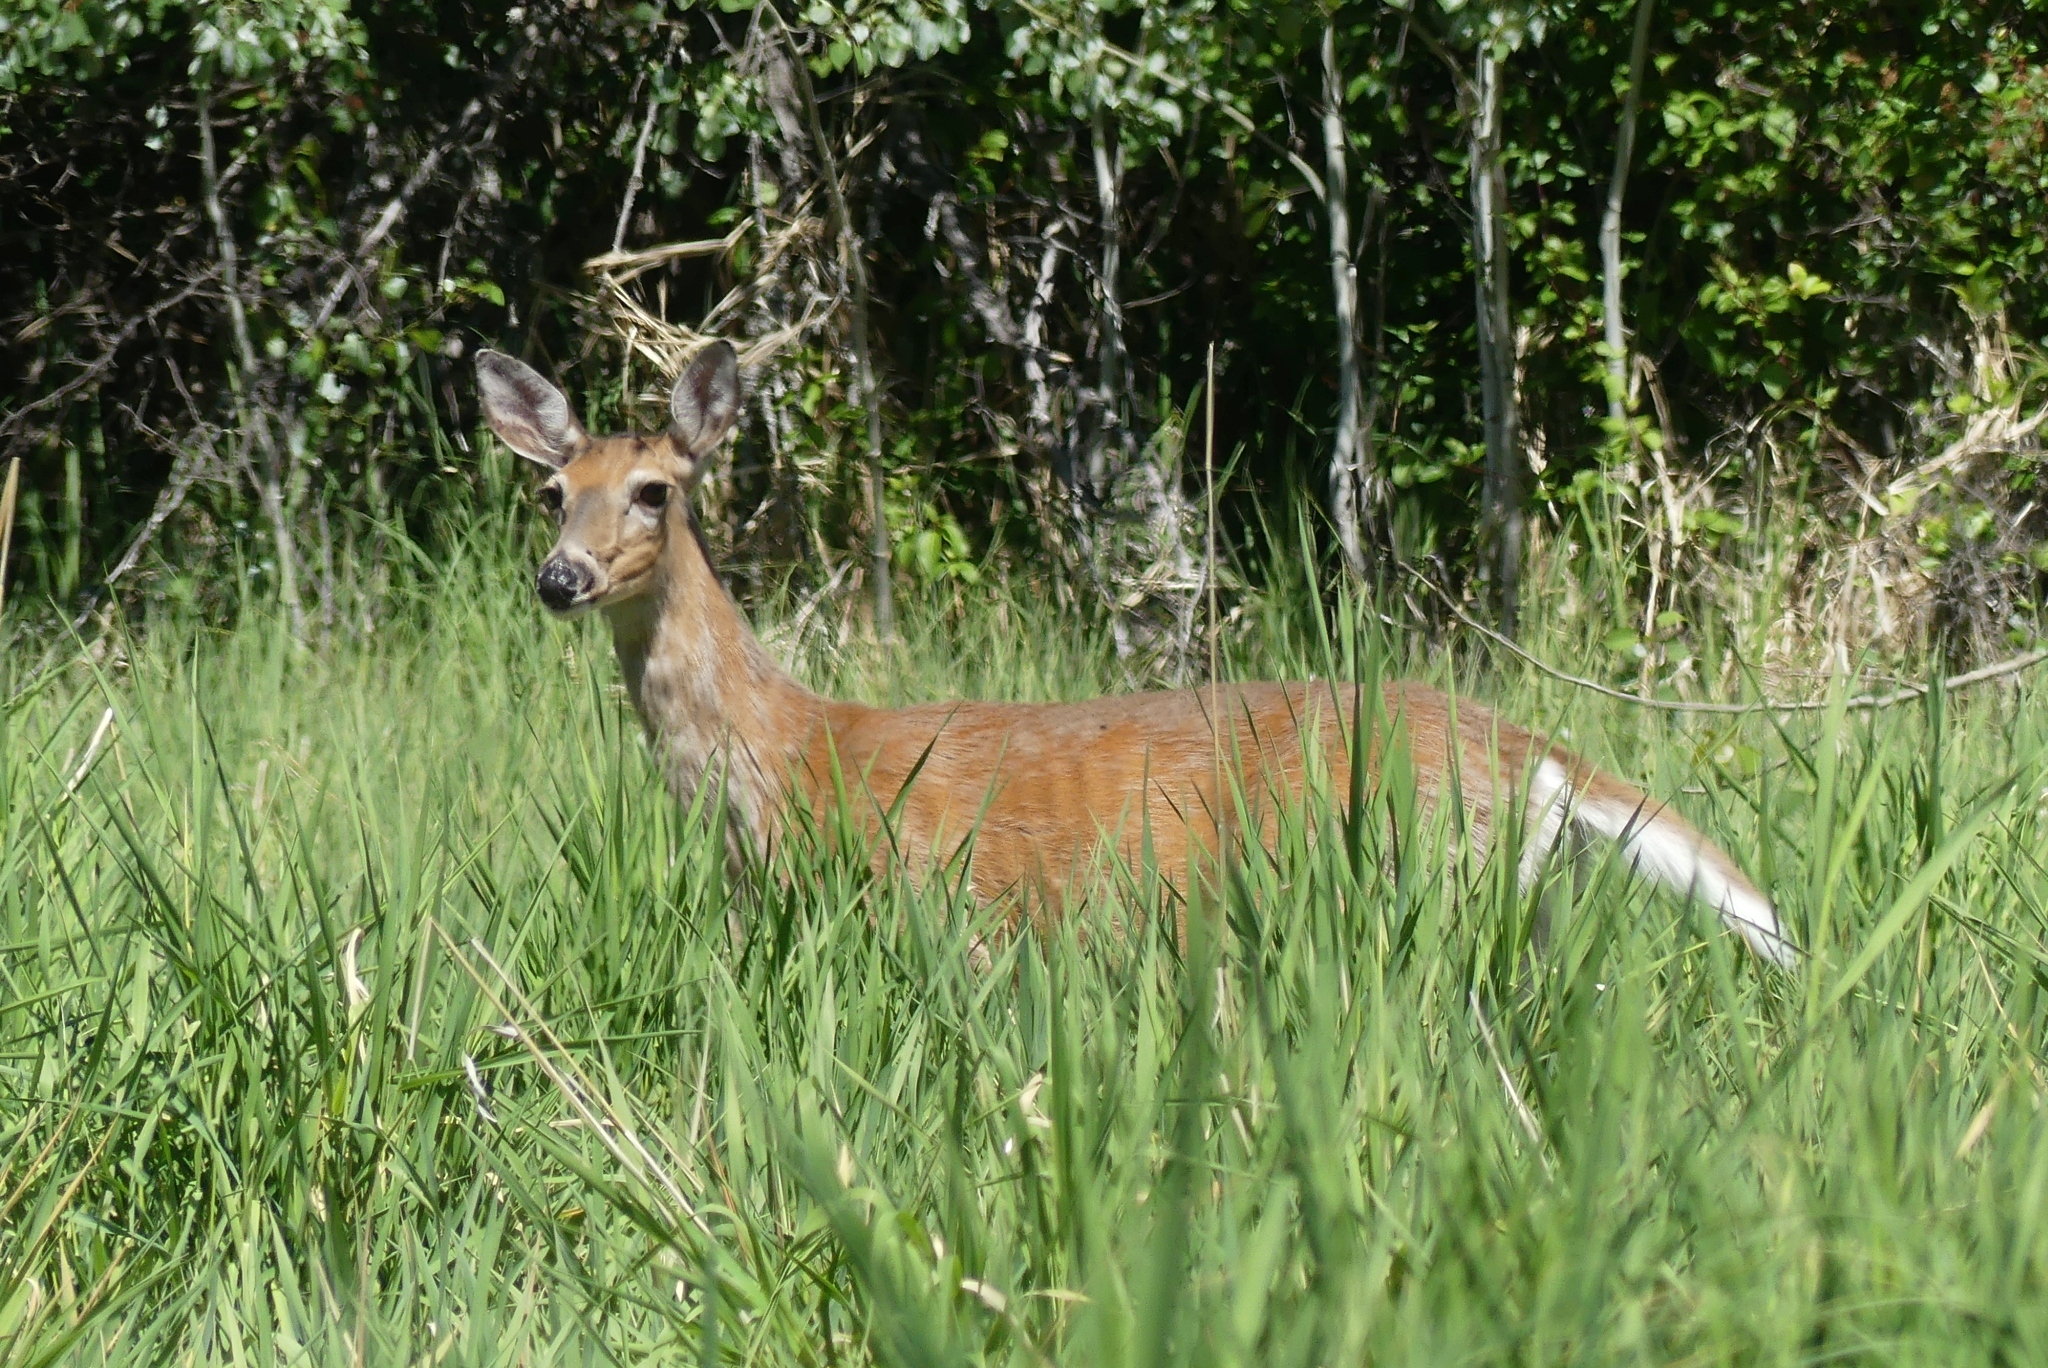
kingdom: Animalia
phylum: Chordata
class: Mammalia
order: Artiodactyla
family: Cervidae
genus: Odocoileus
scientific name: Odocoileus virginianus
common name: White-tailed deer
